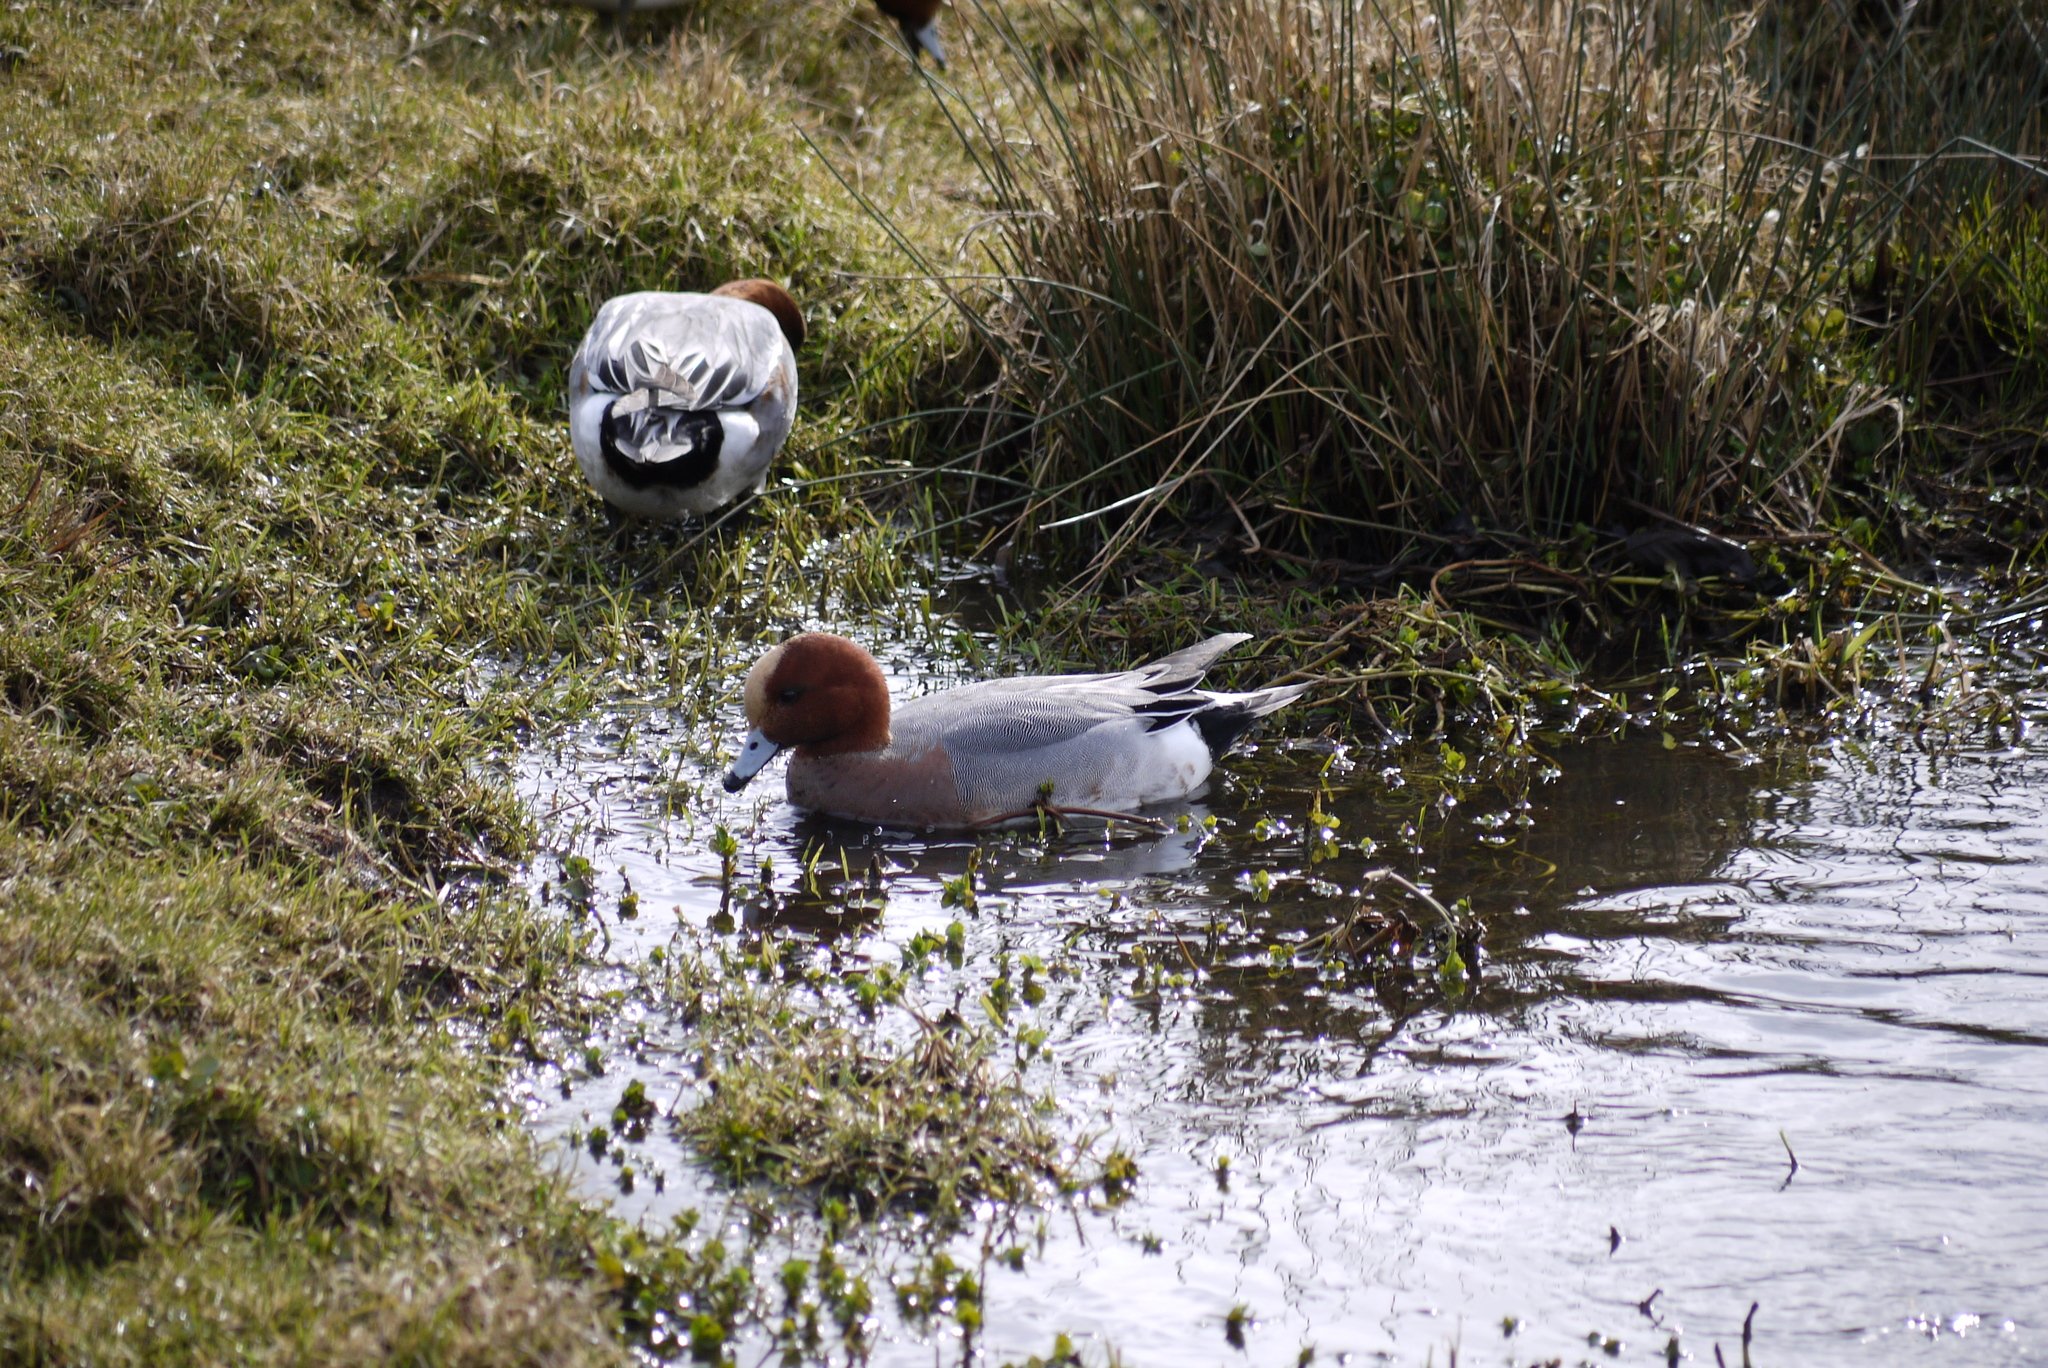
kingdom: Animalia
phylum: Chordata
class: Aves
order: Anseriformes
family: Anatidae
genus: Mareca
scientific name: Mareca penelope
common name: Eurasian wigeon
